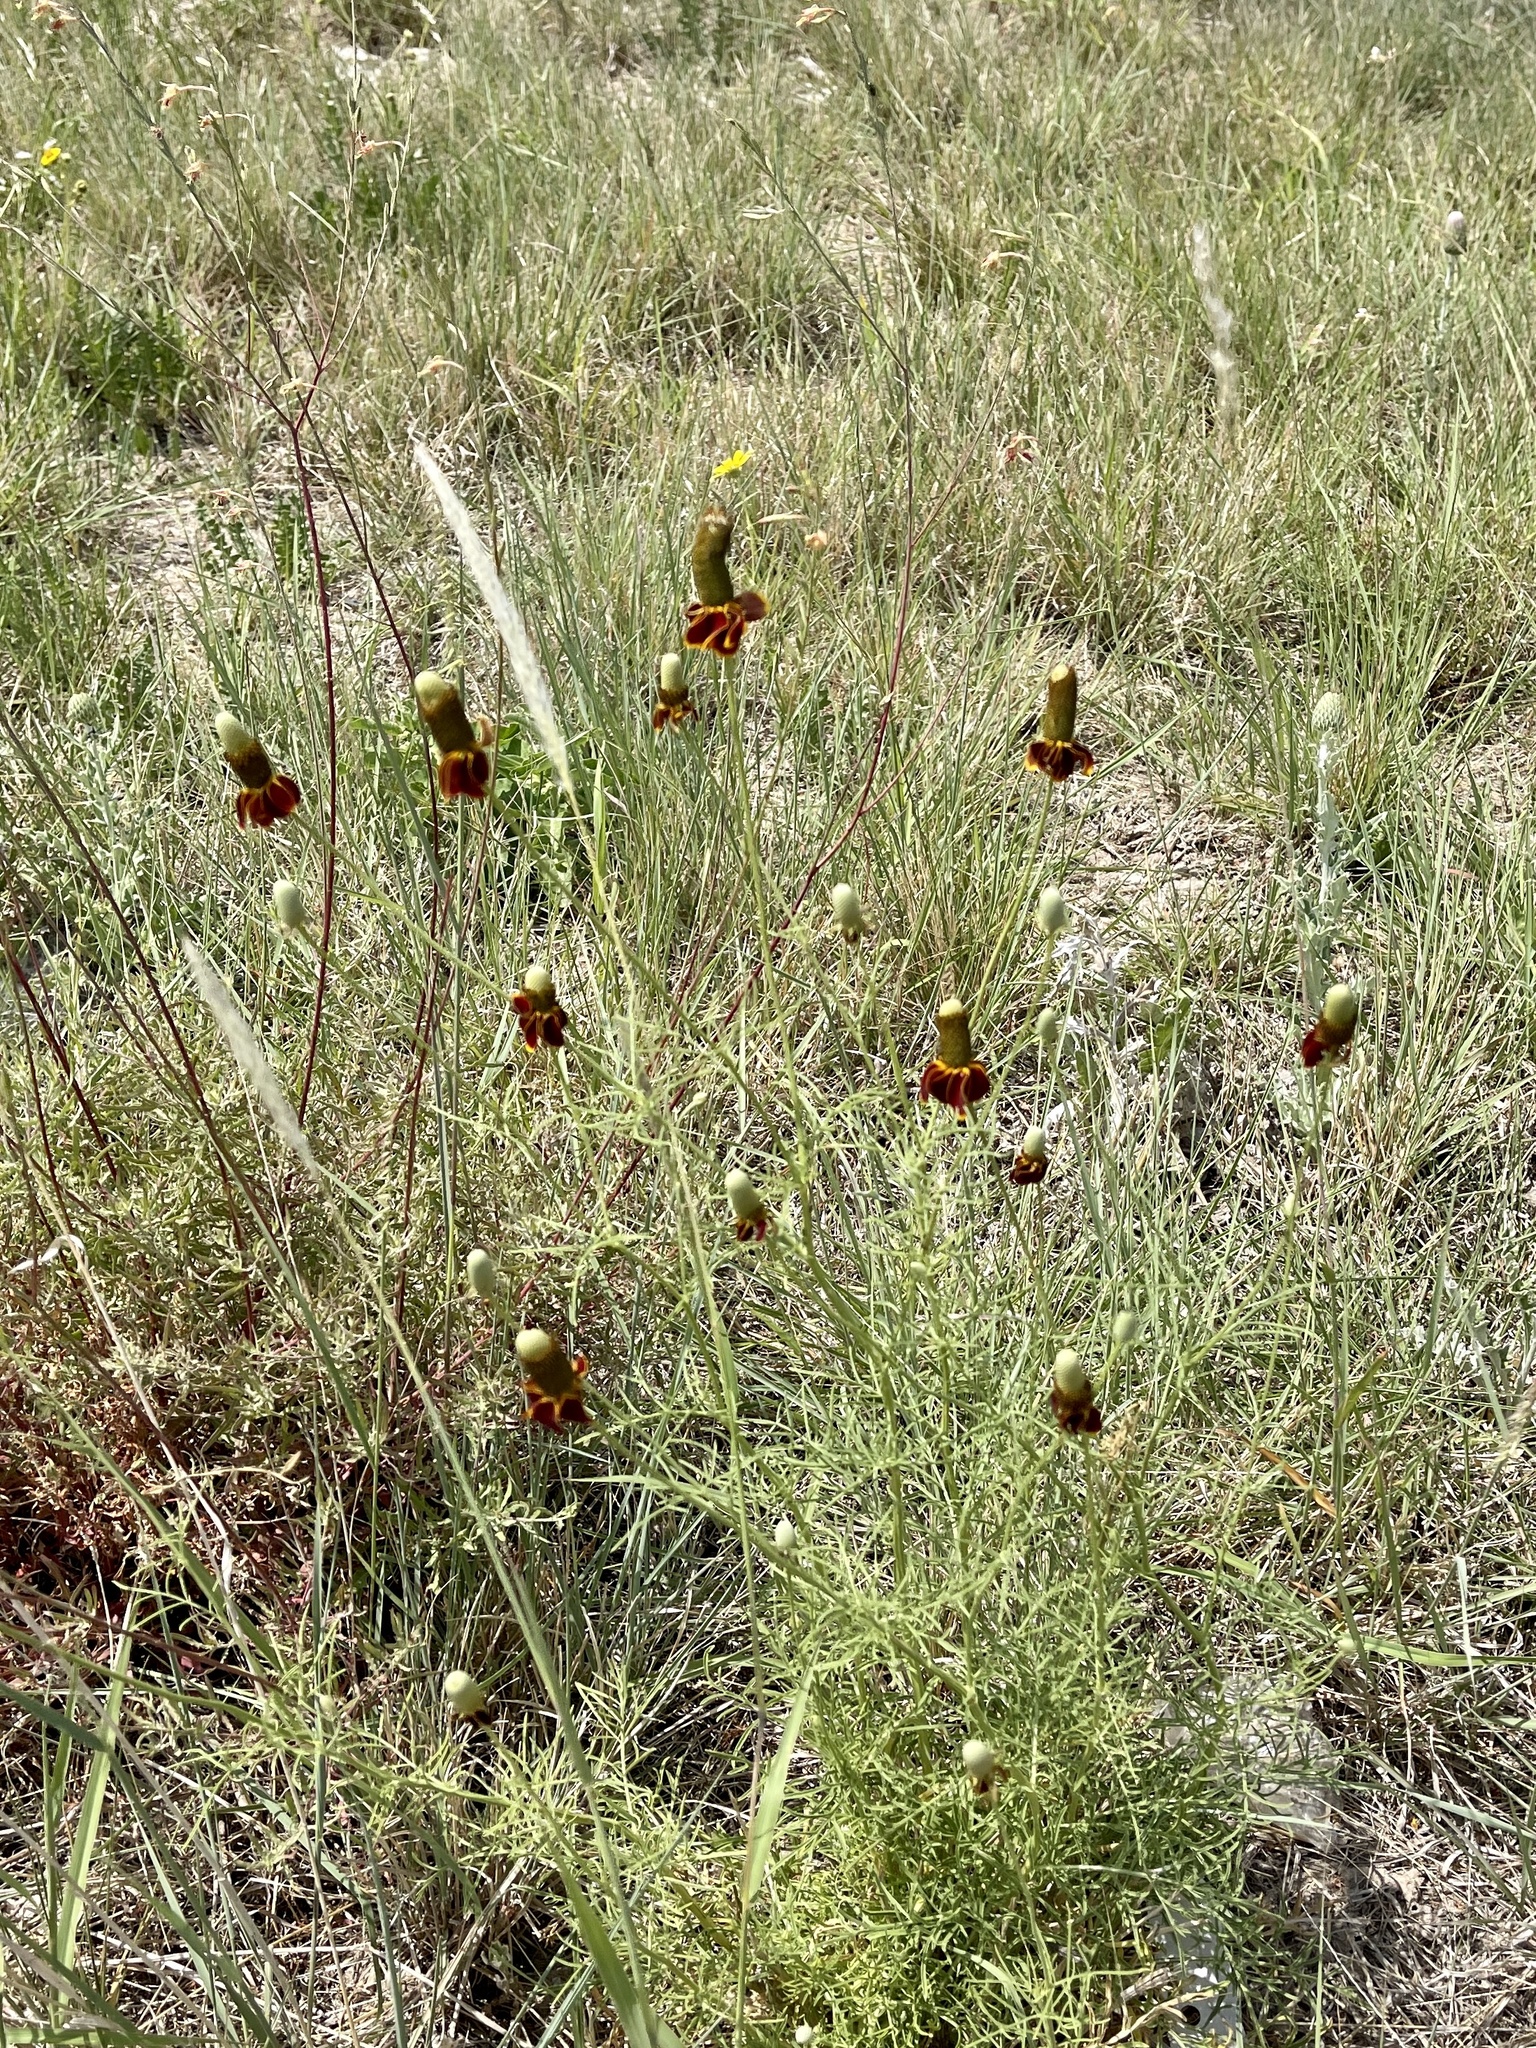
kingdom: Plantae
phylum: Tracheophyta
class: Magnoliopsida
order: Asterales
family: Asteraceae
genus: Ratibida
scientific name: Ratibida columnifera
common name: Prairie coneflower
